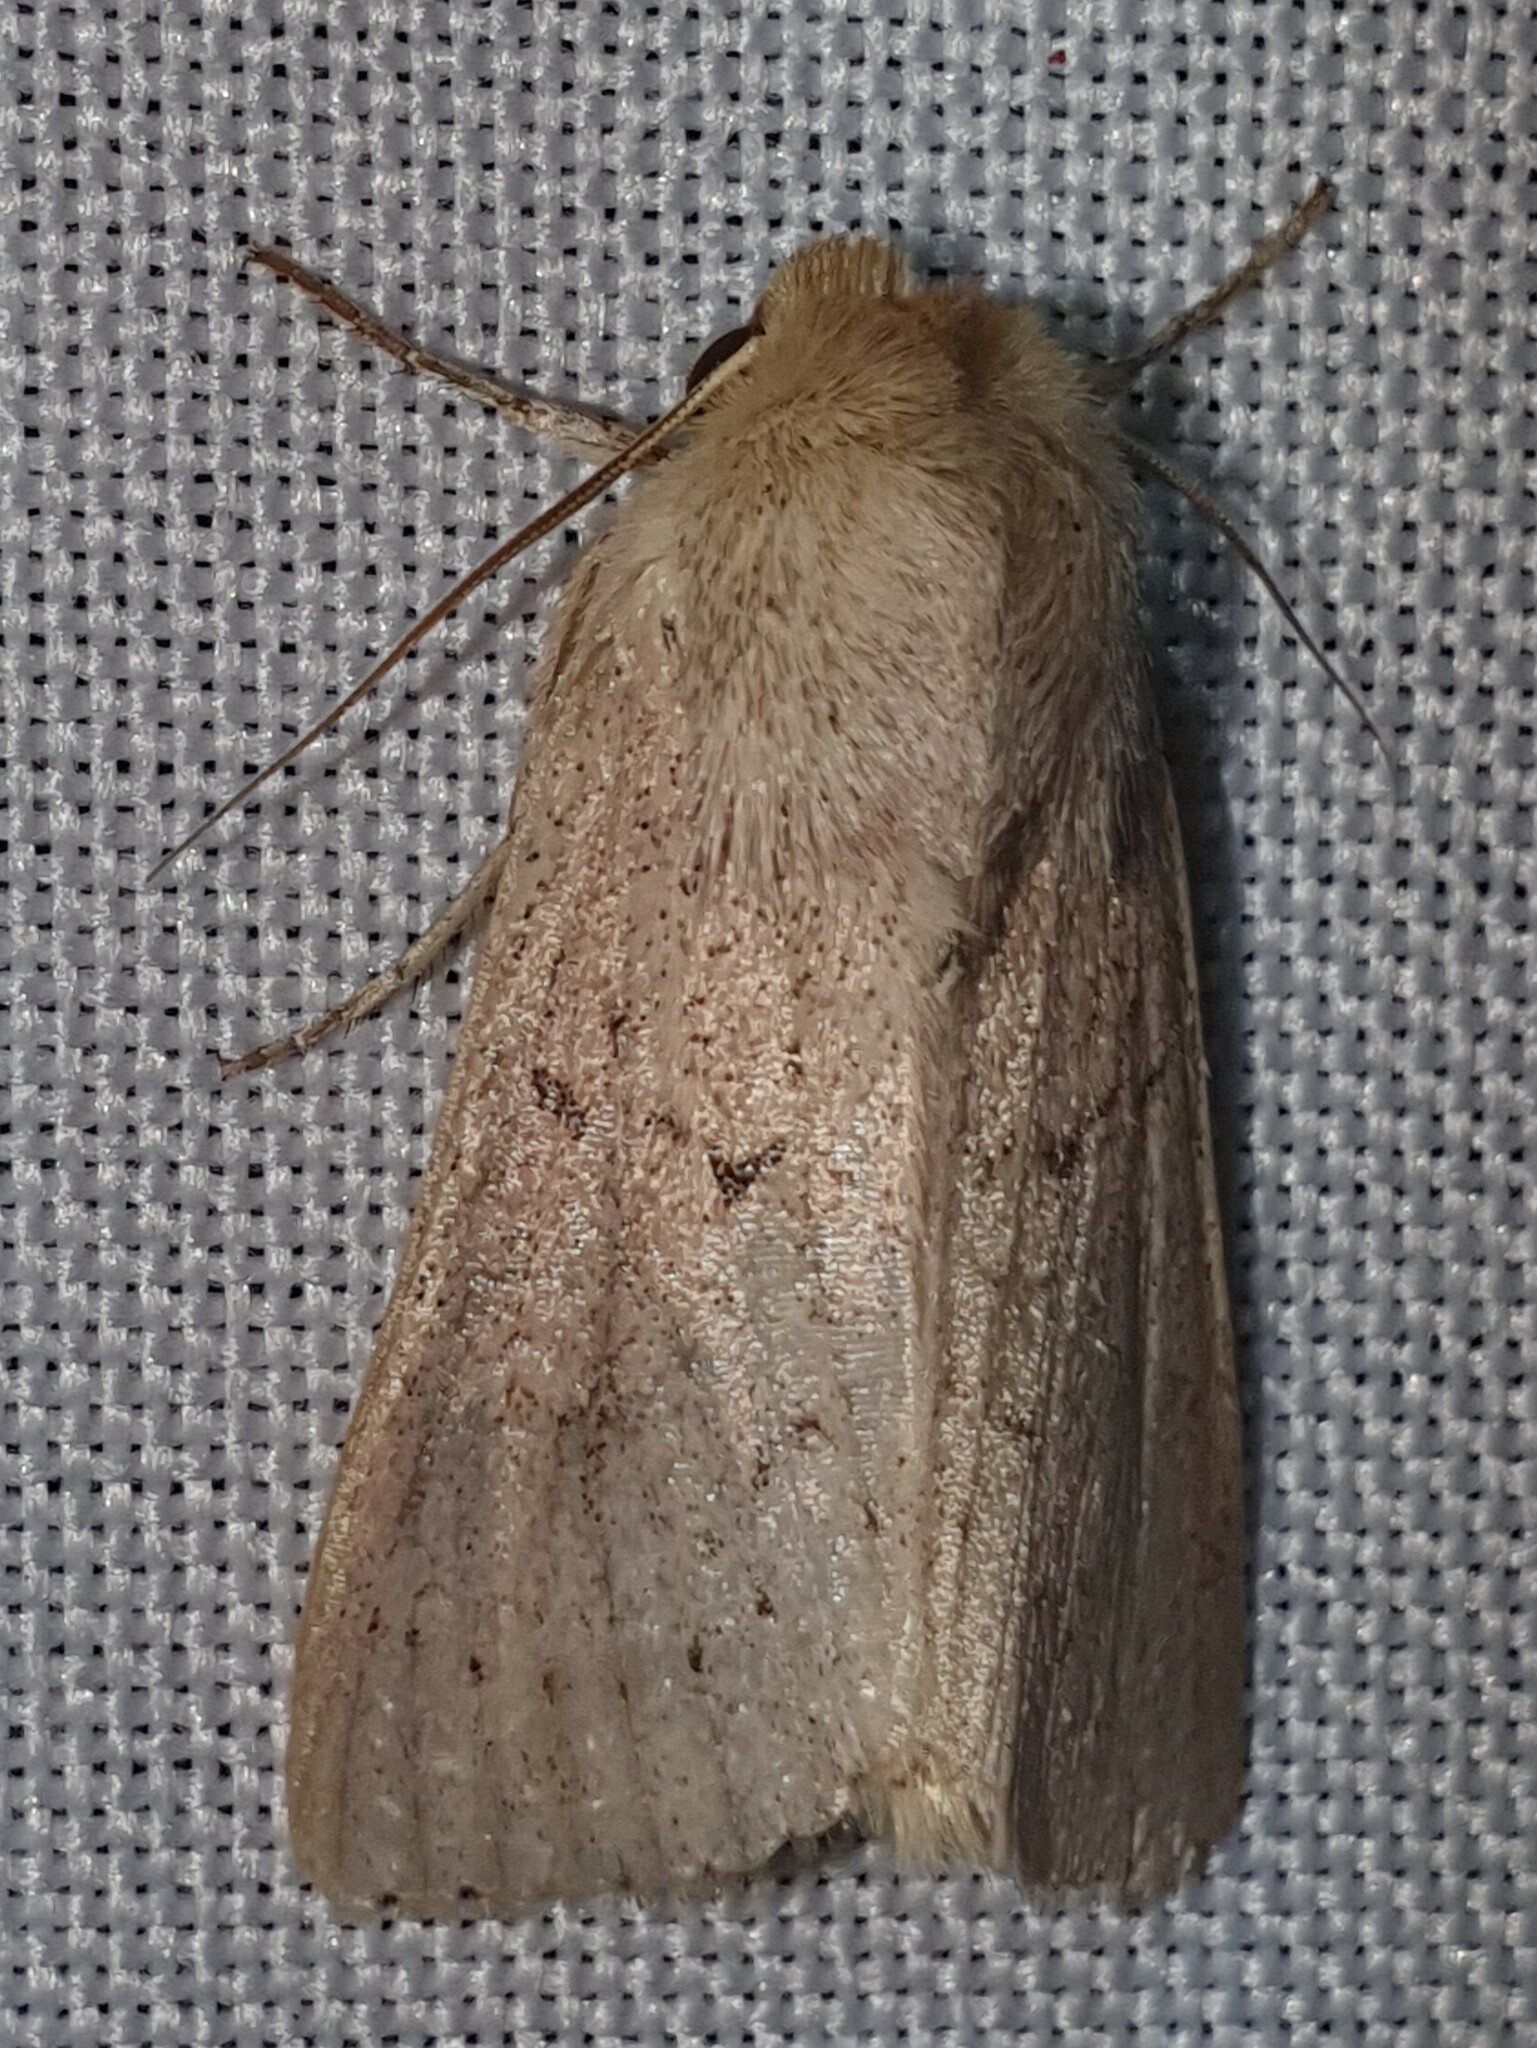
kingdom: Animalia
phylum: Arthropoda
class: Insecta
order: Lepidoptera
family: Noctuidae
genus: Mythimna
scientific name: Mythimna ferrago
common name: Clay
